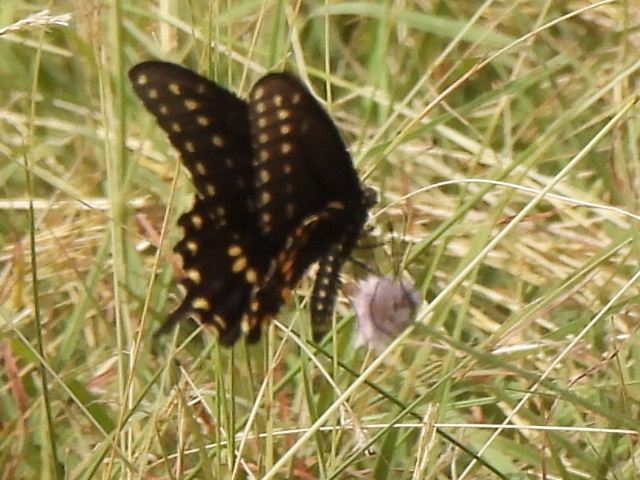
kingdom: Animalia
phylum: Arthropoda
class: Insecta
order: Lepidoptera
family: Papilionidae
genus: Papilio
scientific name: Papilio polyxenes
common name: Black swallowtail
